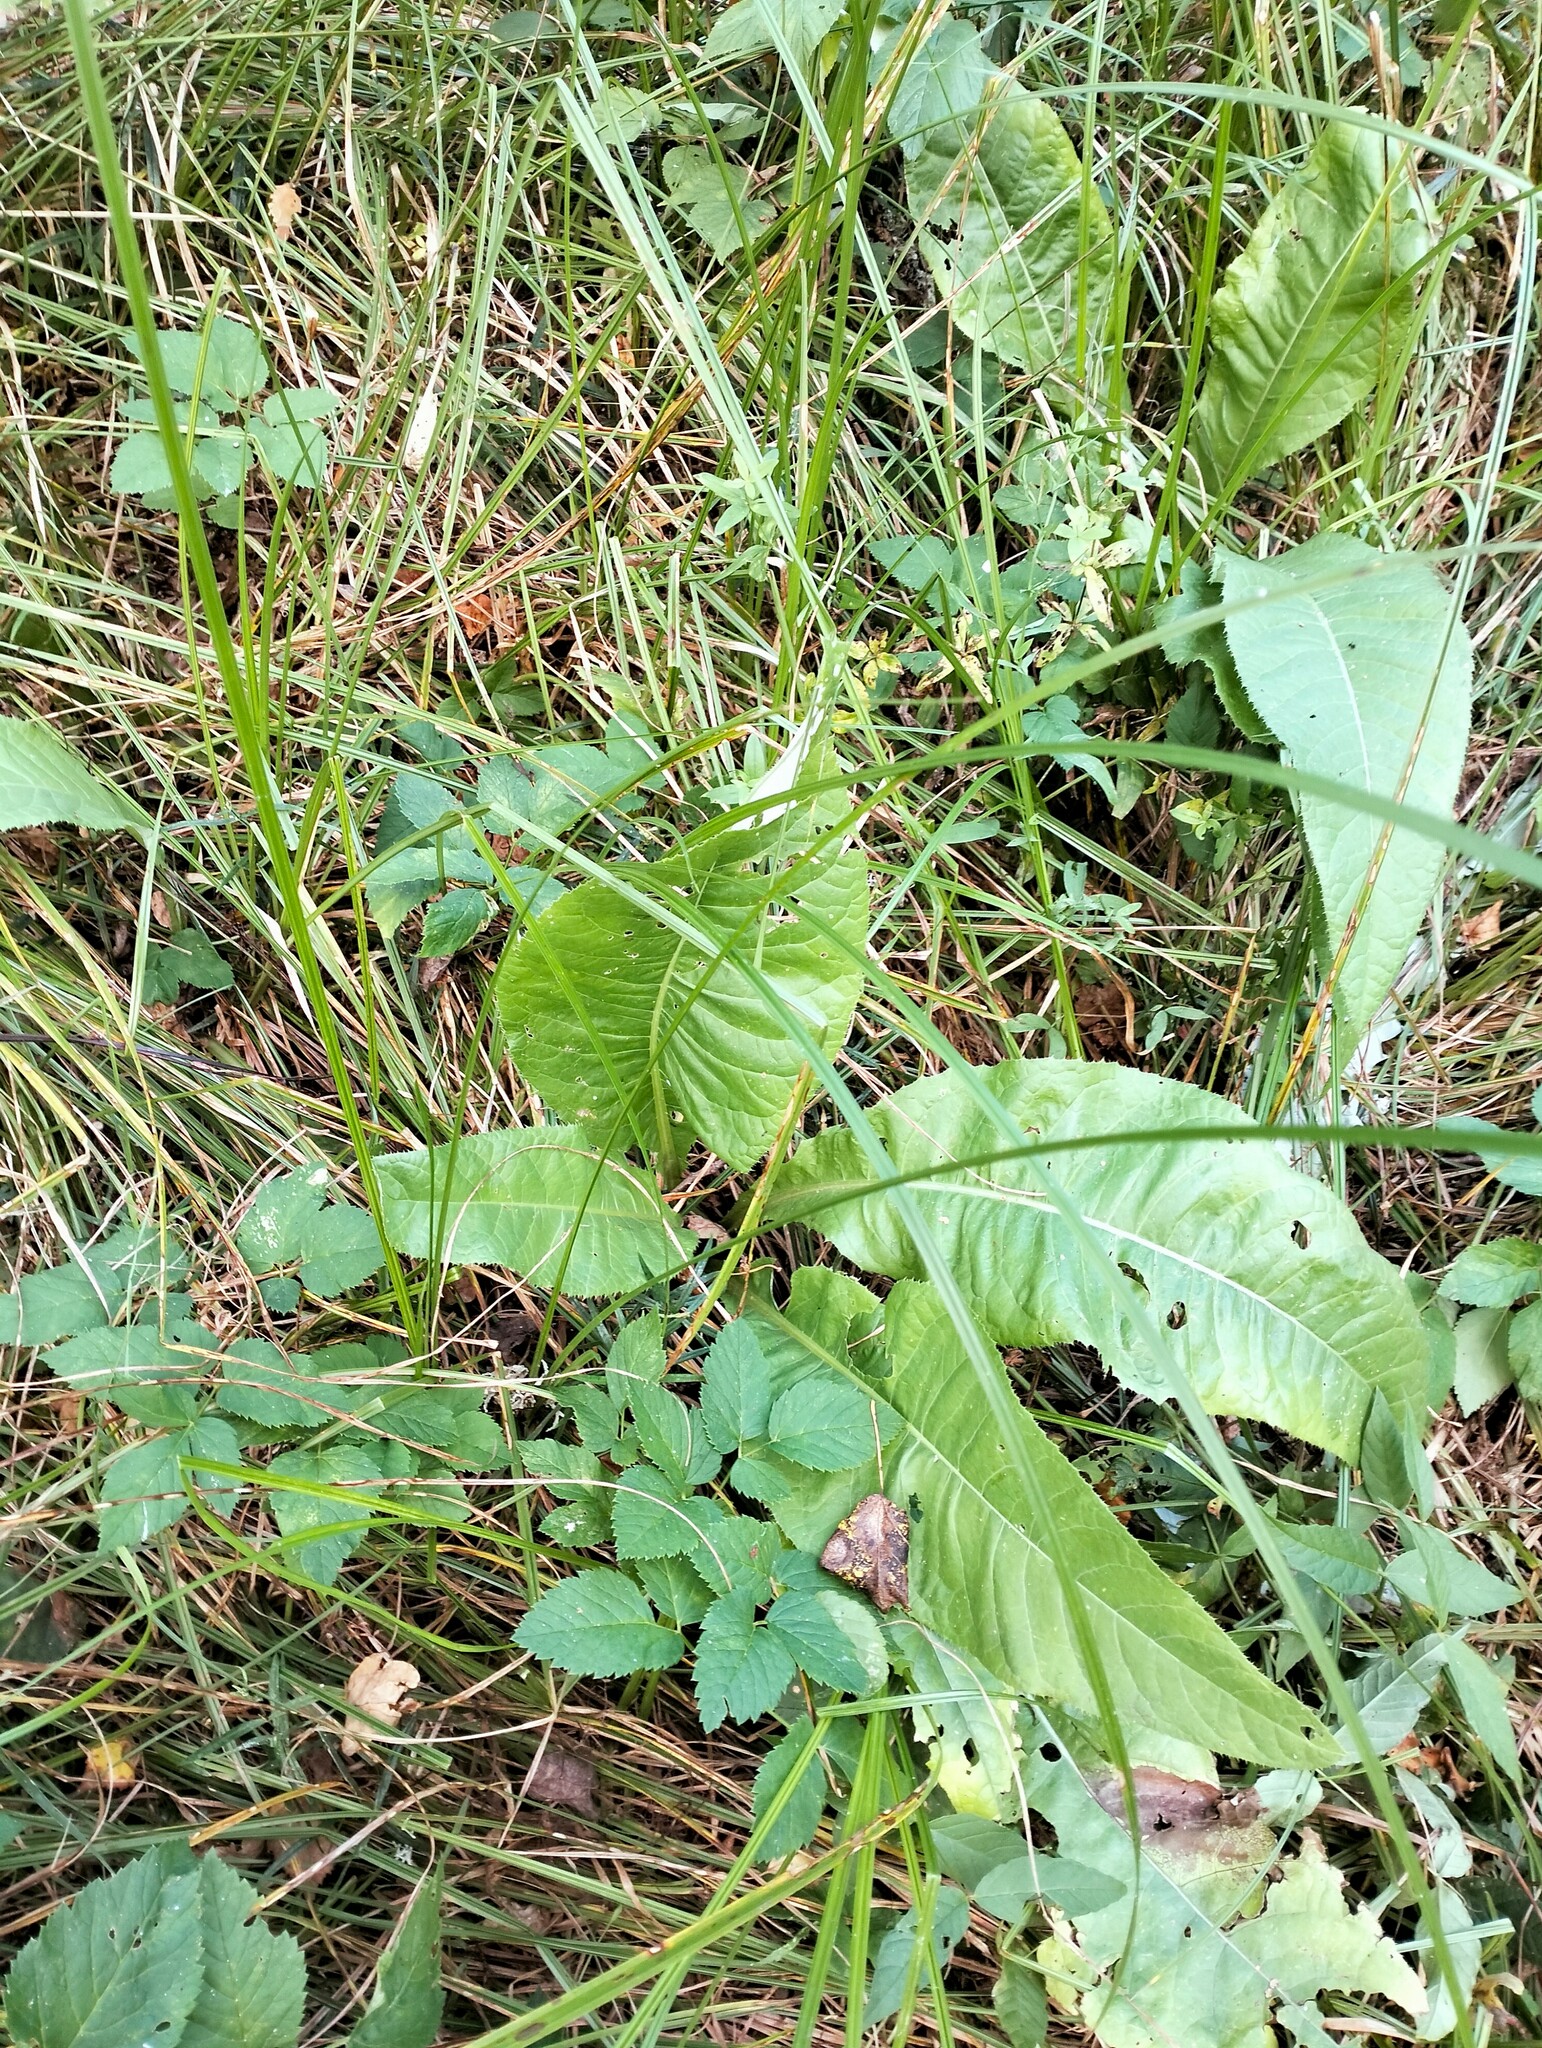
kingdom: Plantae
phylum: Tracheophyta
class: Magnoliopsida
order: Asterales
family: Asteraceae
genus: Cirsium
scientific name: Cirsium heterophyllum
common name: Melancholy thistle
